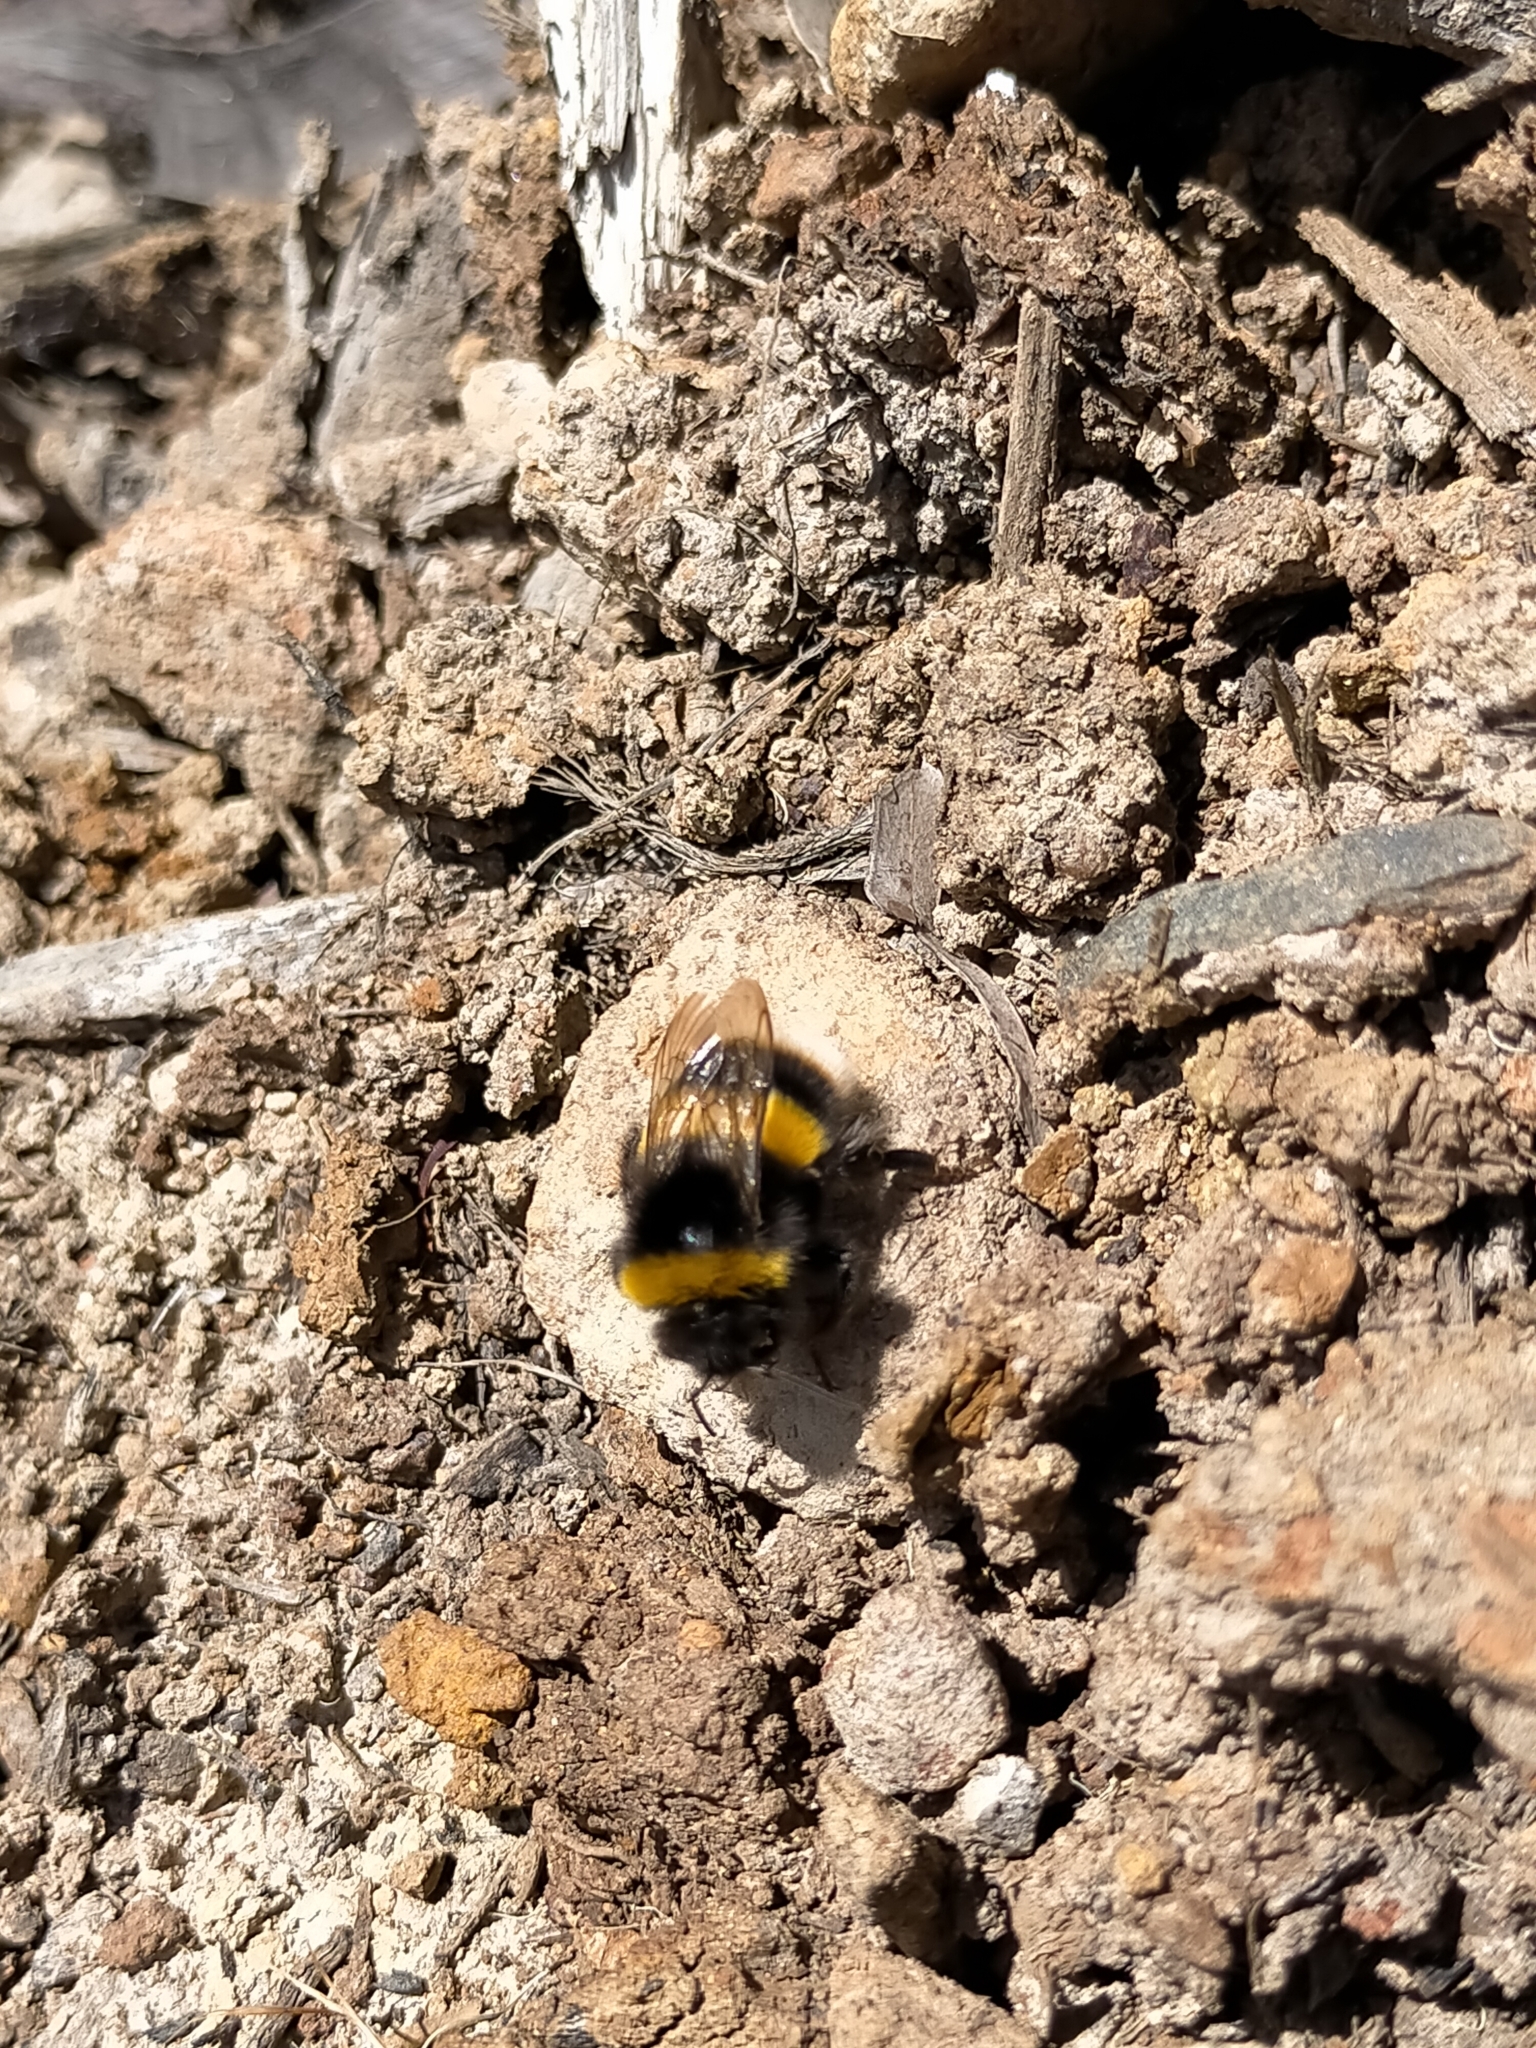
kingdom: Animalia
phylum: Arthropoda
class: Insecta
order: Hymenoptera
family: Apidae
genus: Bombus
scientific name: Bombus terrestris
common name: Buff-tailed bumblebee
